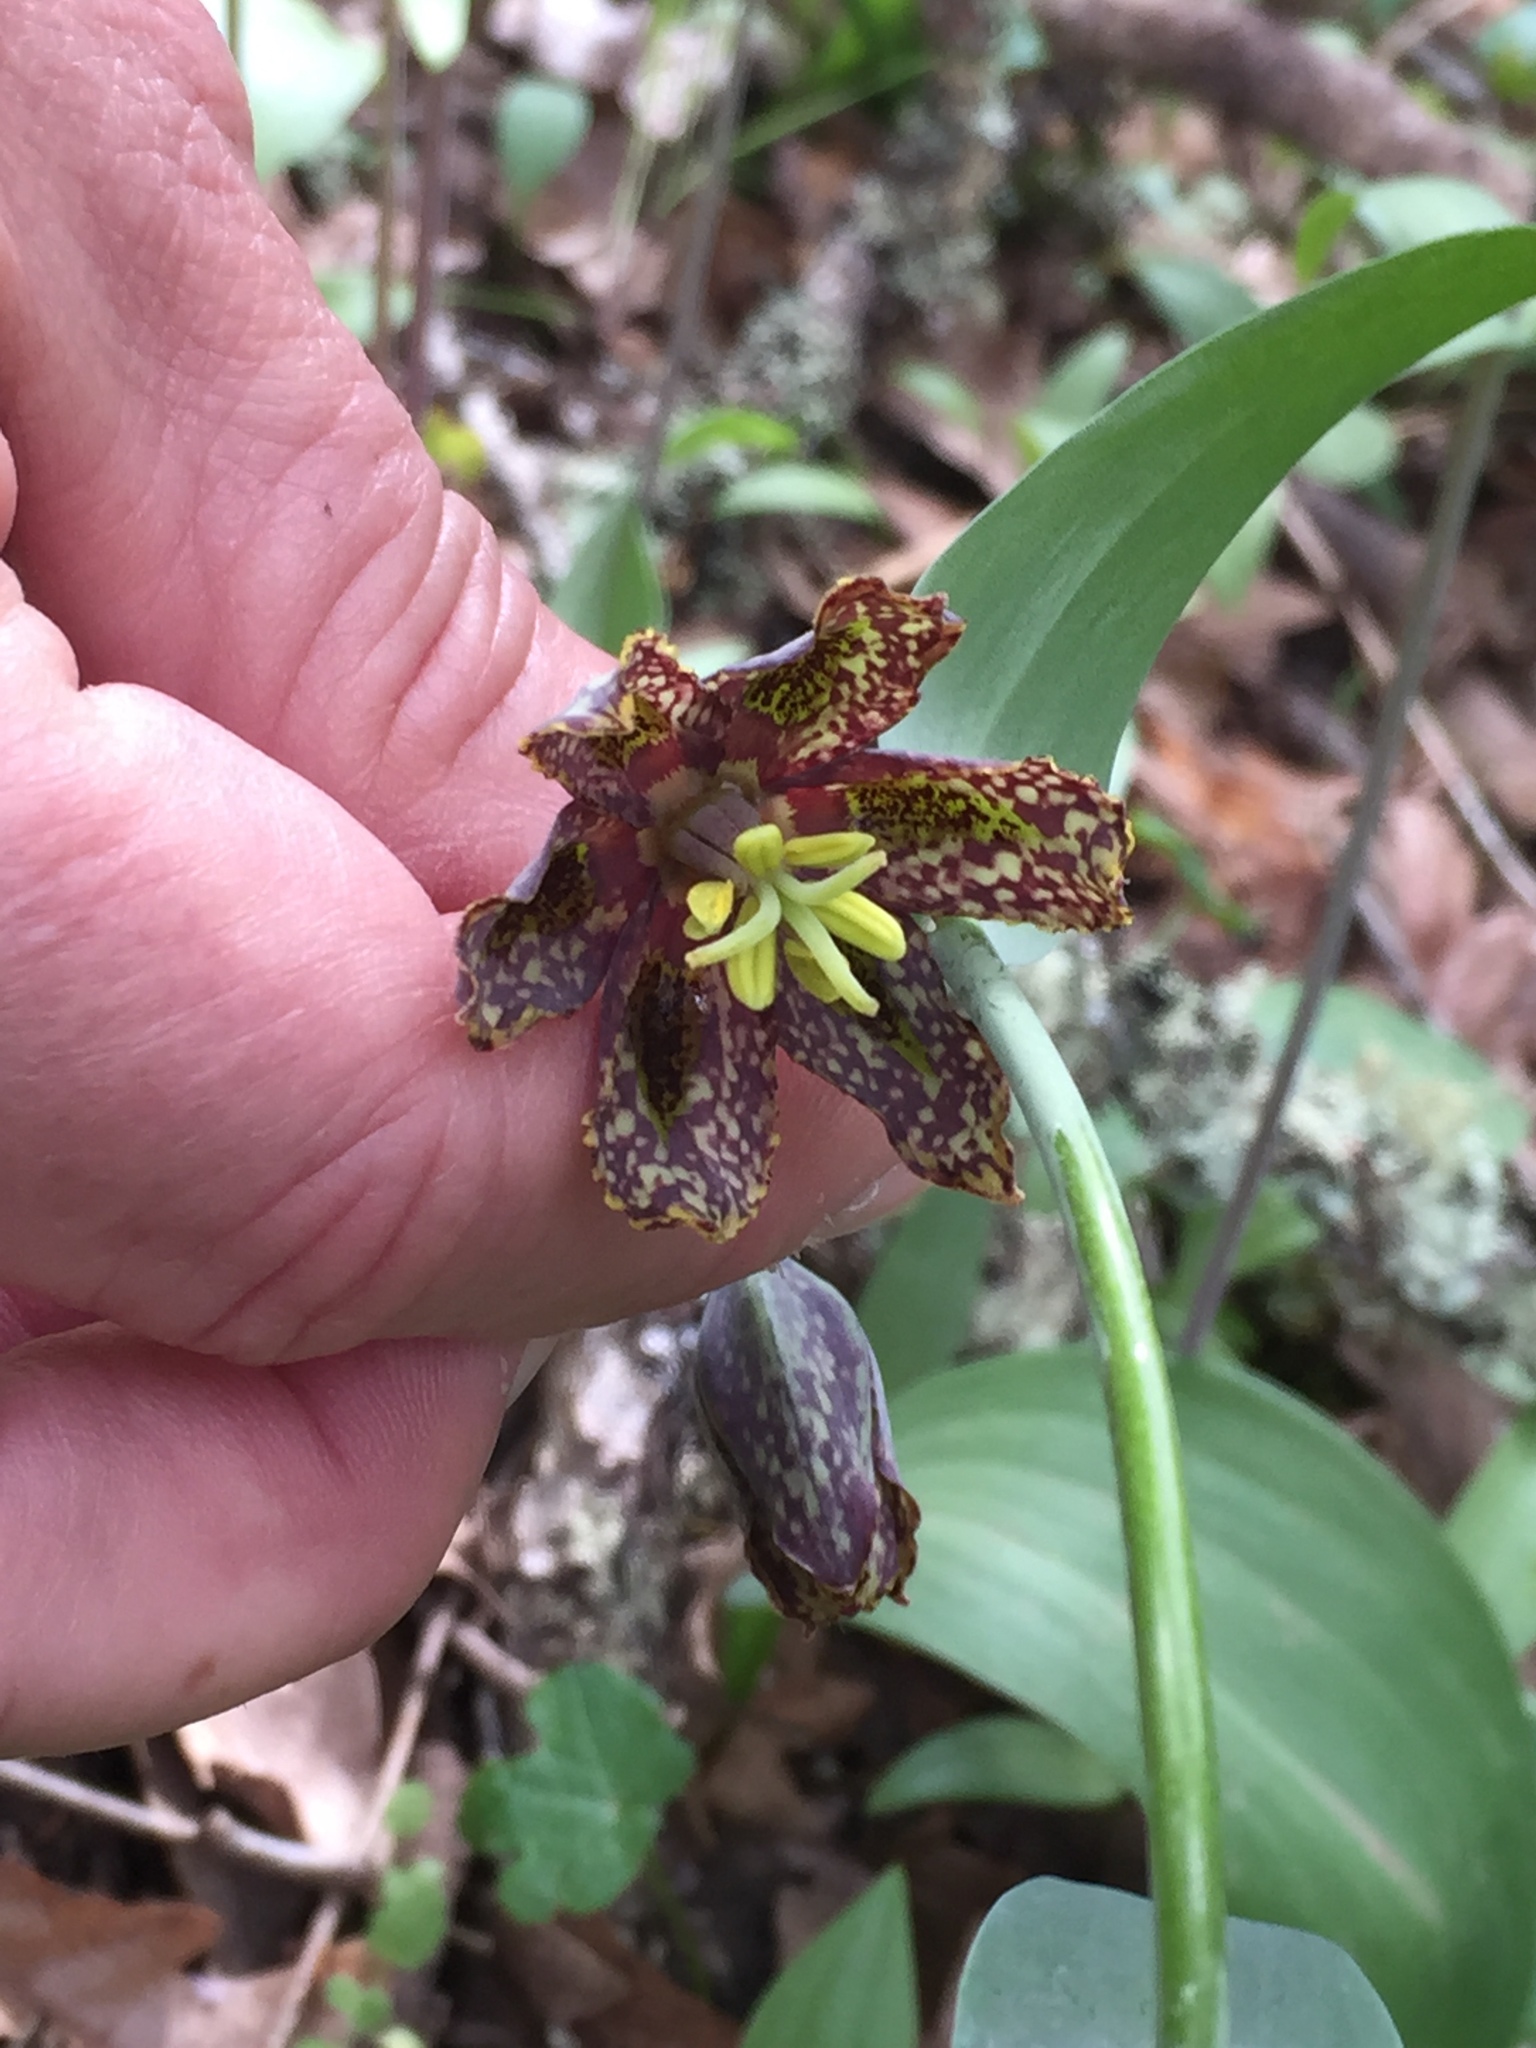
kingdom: Plantae
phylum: Tracheophyta
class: Liliopsida
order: Liliales
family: Liliaceae
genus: Fritillaria
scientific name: Fritillaria affinis
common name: Ojai fritillary
